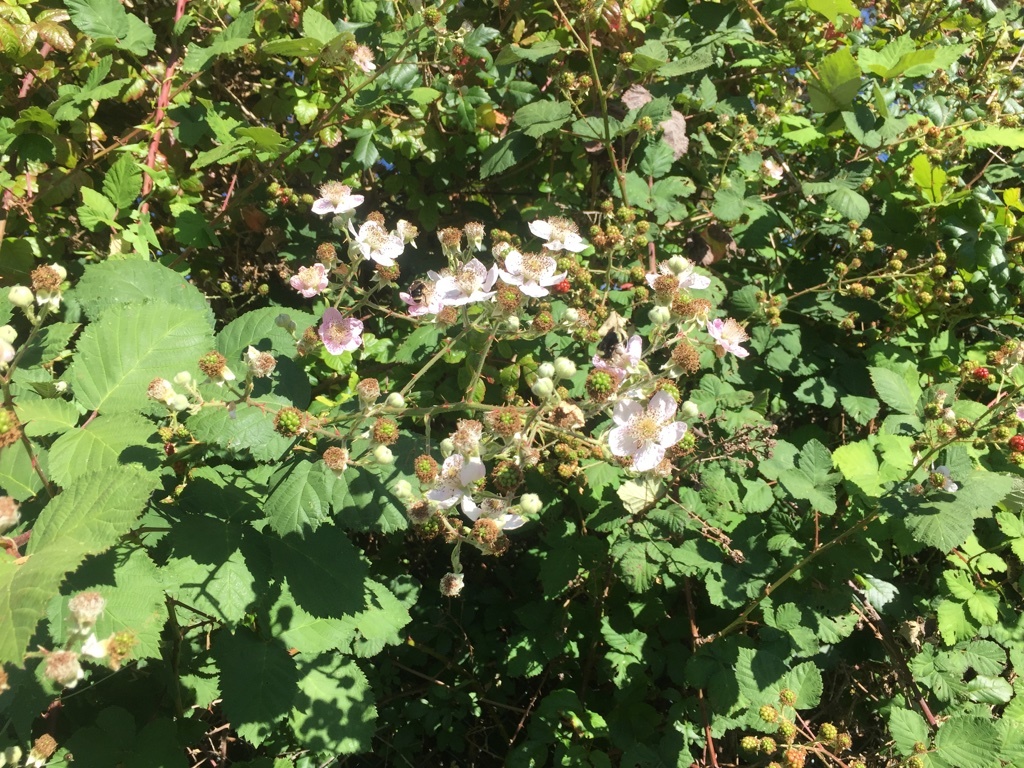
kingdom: Plantae
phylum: Tracheophyta
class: Magnoliopsida
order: Rosales
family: Rosaceae
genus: Rubus
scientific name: Rubus armeniacus
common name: Himalayan blackberry
